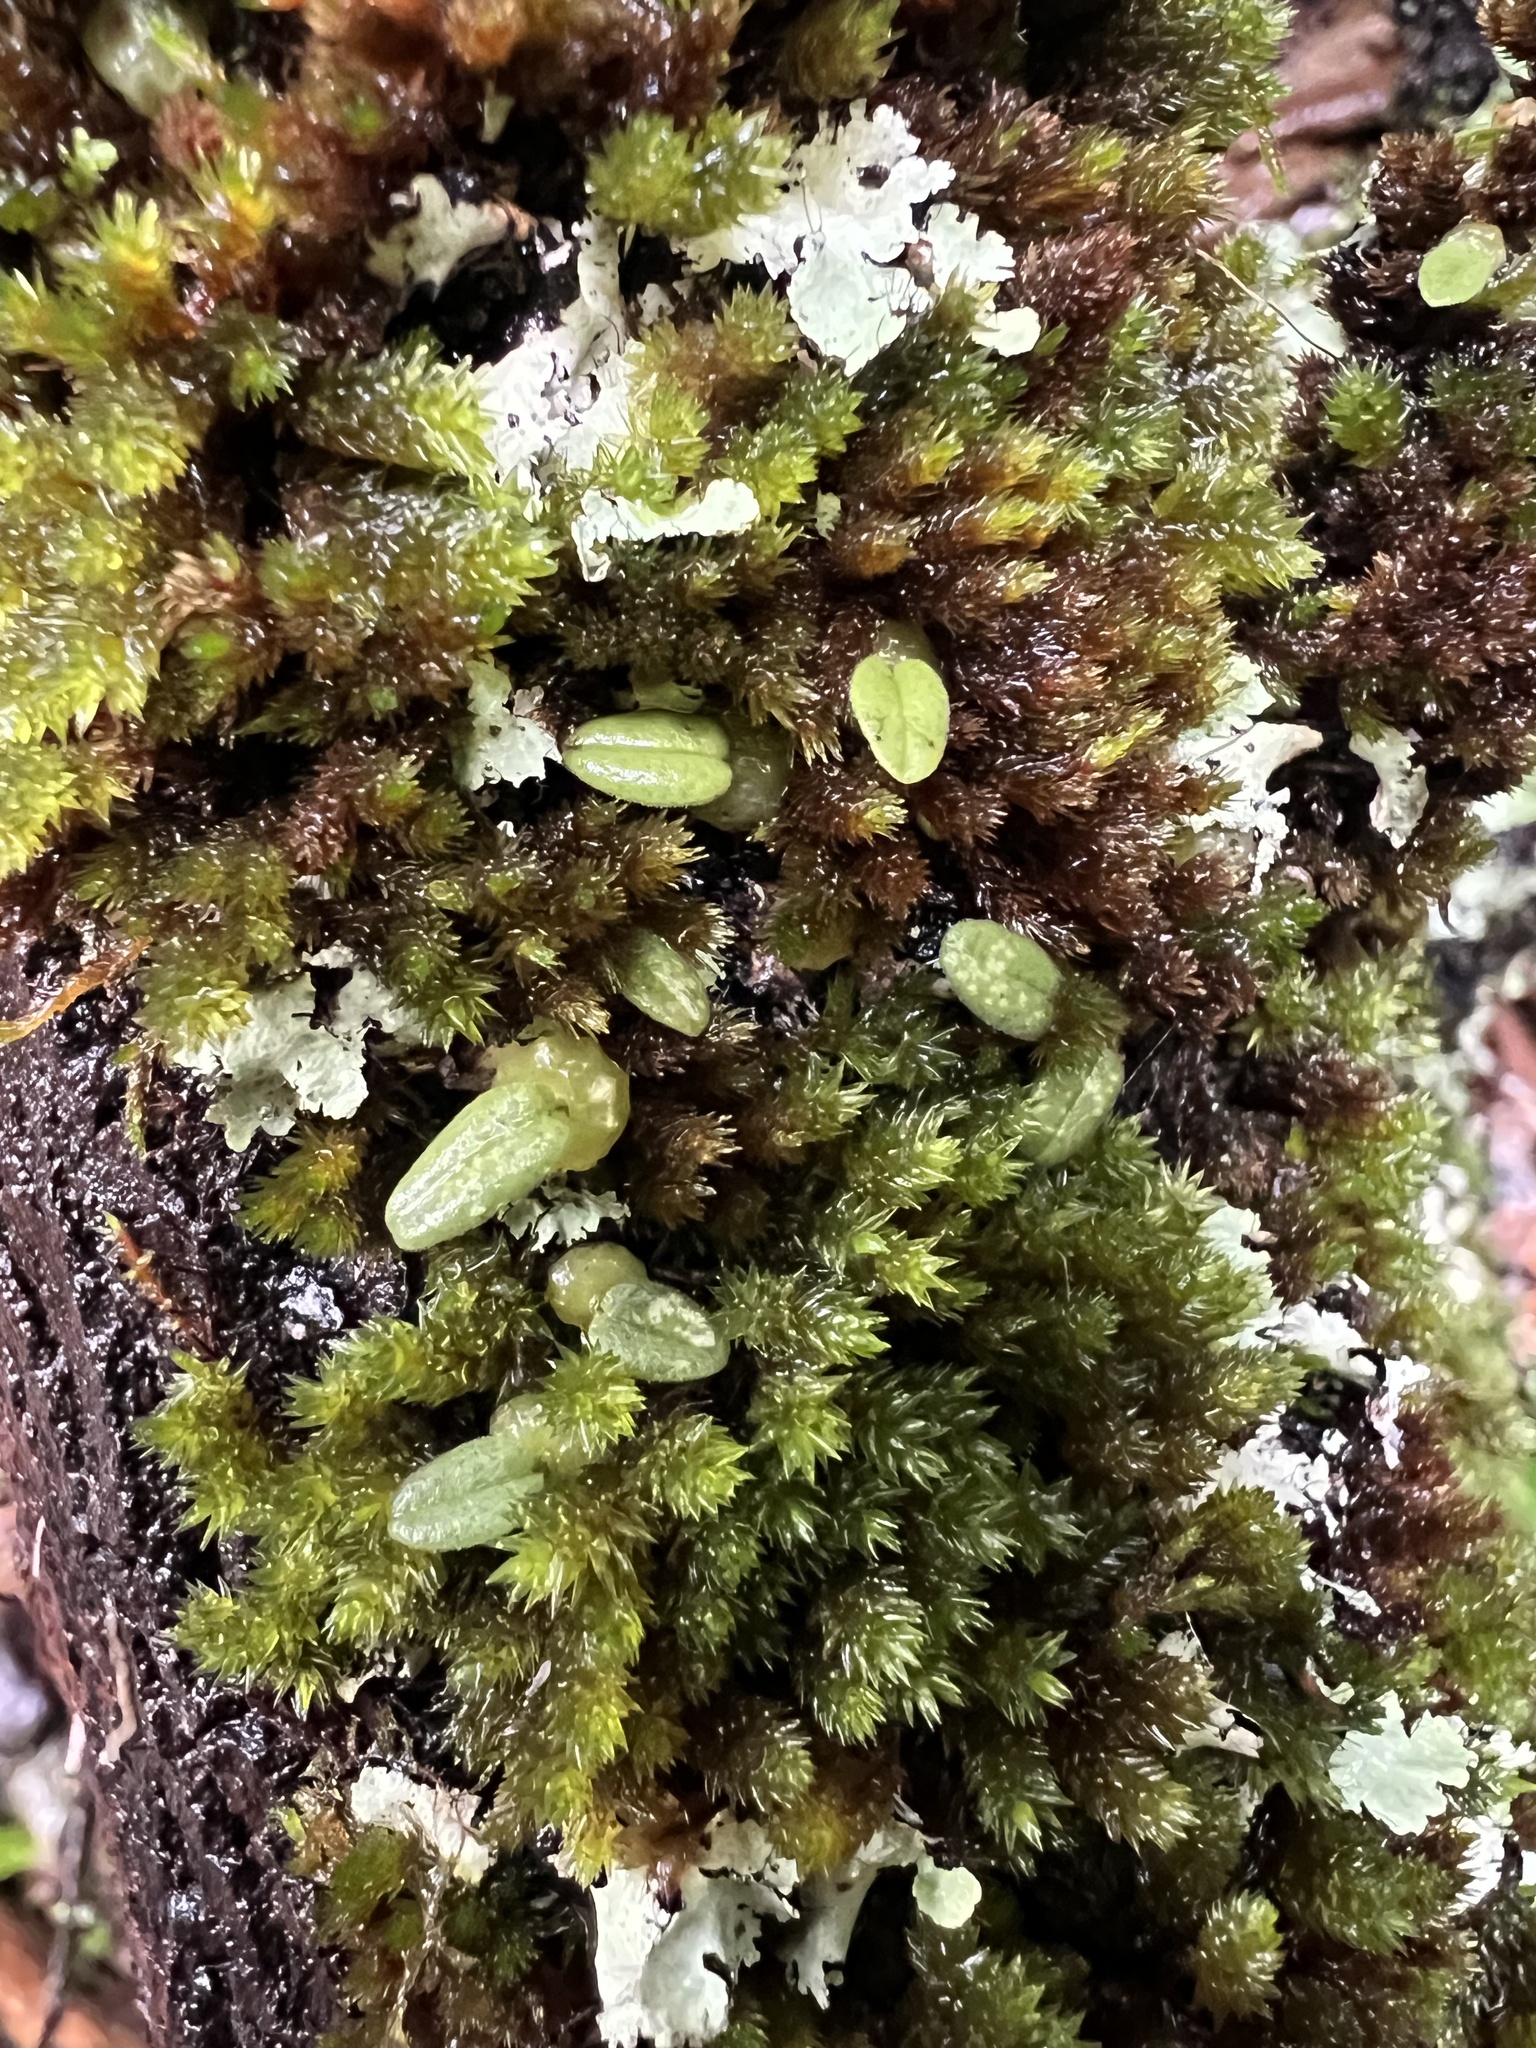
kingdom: Plantae
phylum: Tracheophyta
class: Liliopsida
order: Asparagales
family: Orchidaceae
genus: Bulbophyllum
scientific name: Bulbophyllum pygmaeum
